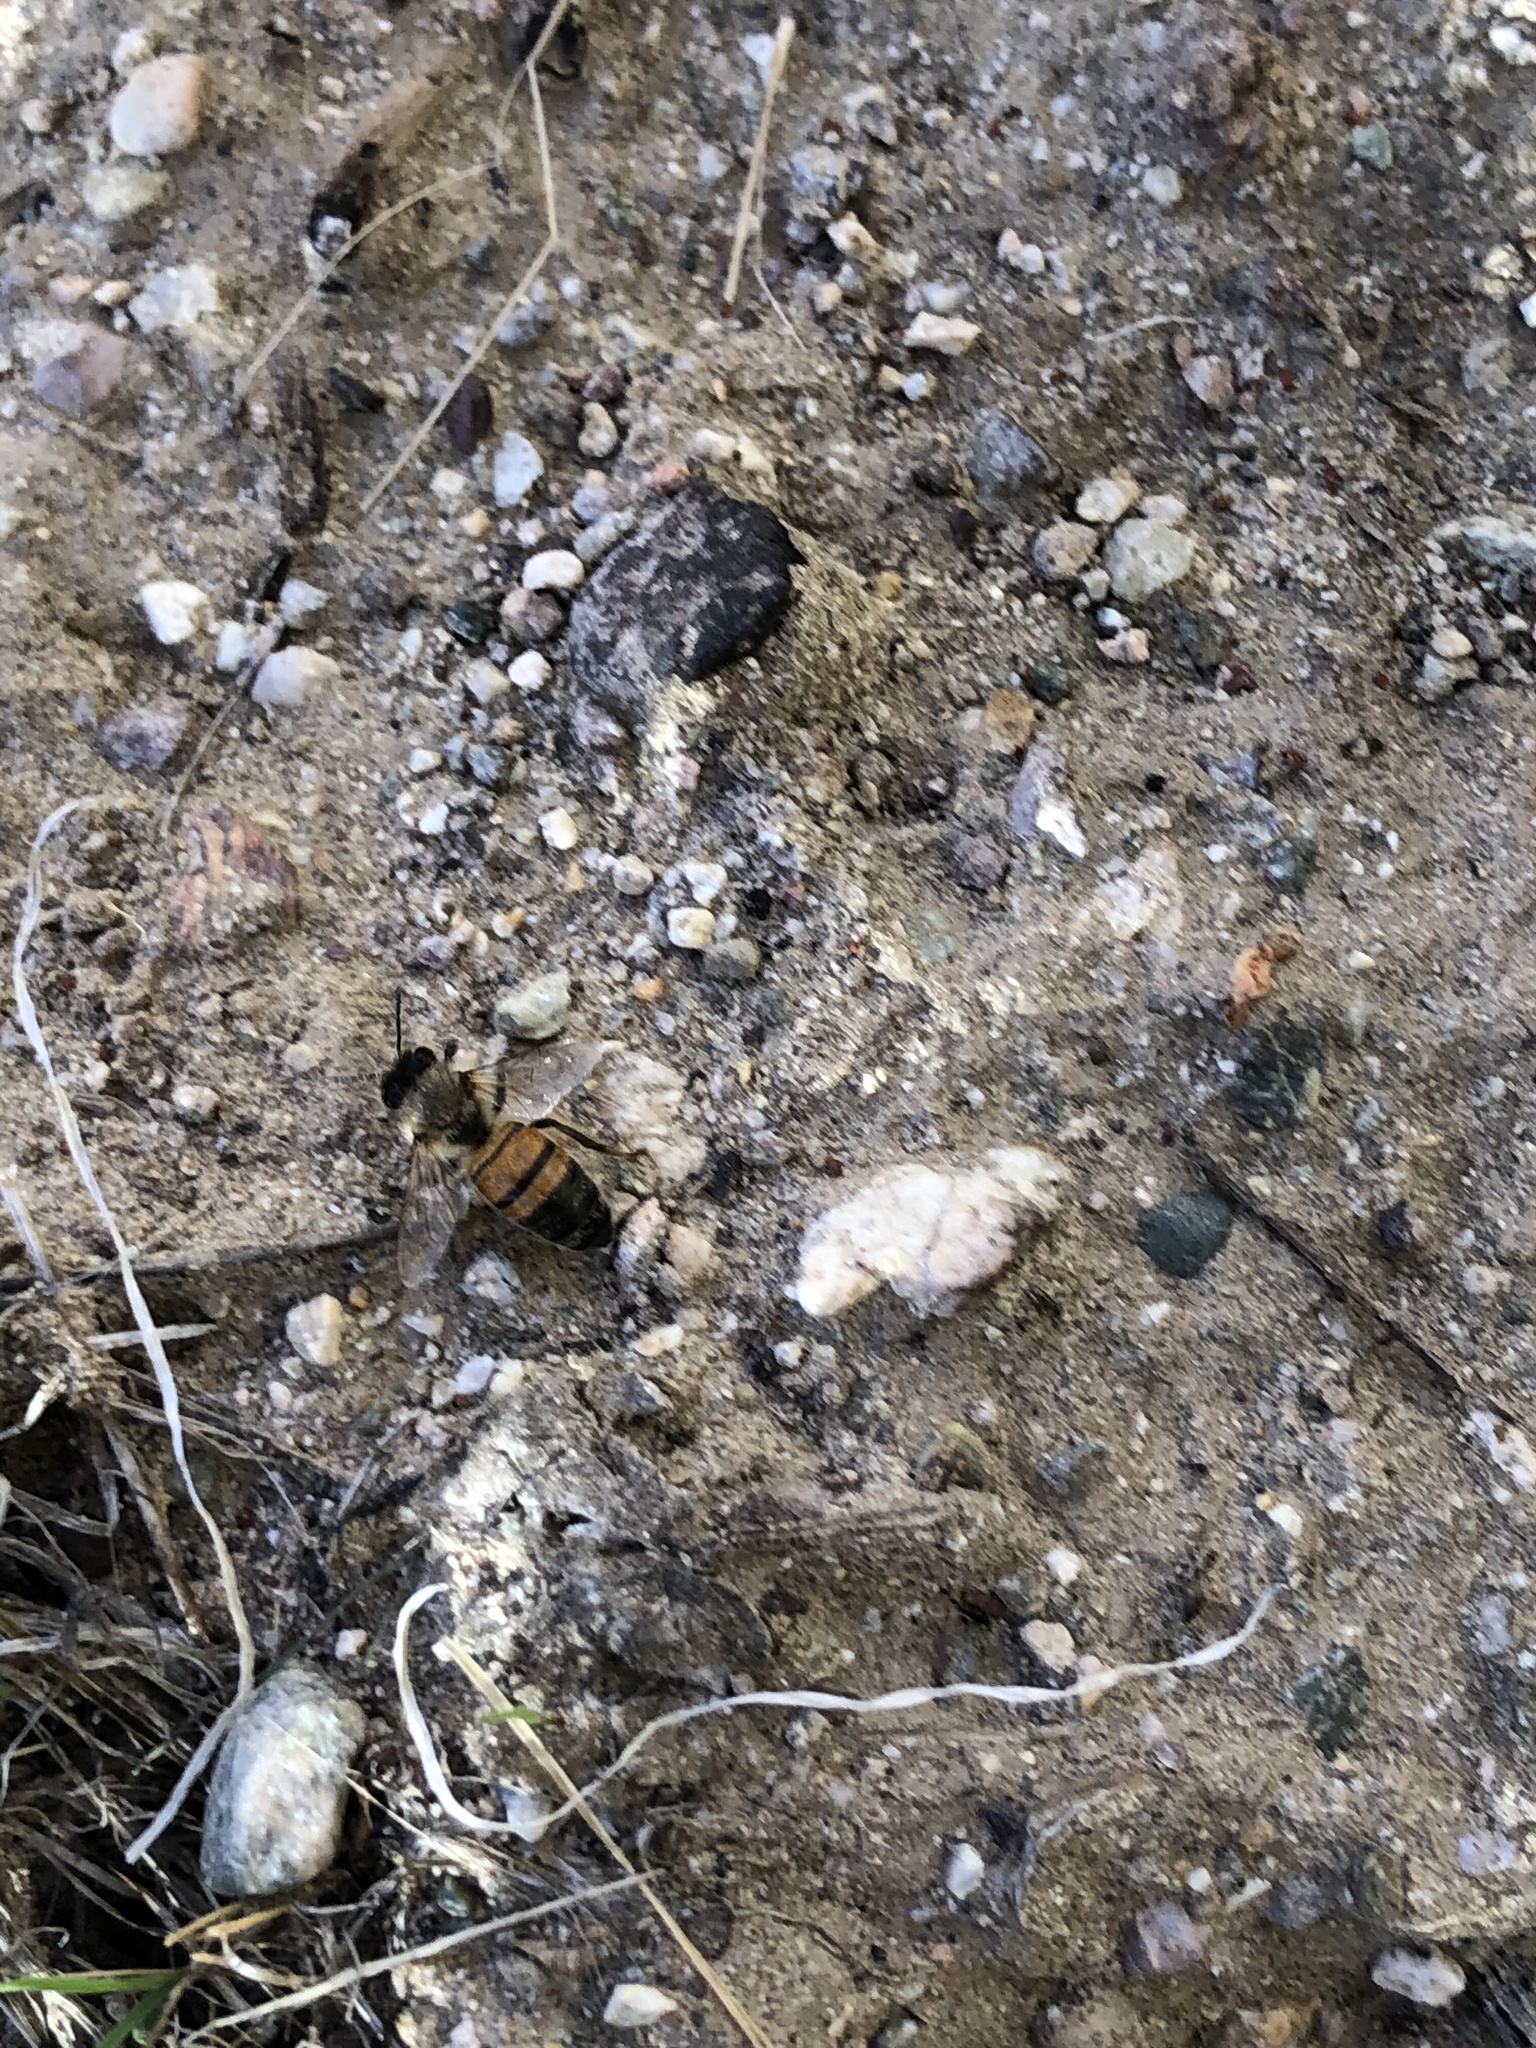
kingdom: Animalia
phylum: Arthropoda
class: Insecta
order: Hymenoptera
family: Apidae
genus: Apis
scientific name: Apis mellifera
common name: Honey bee
